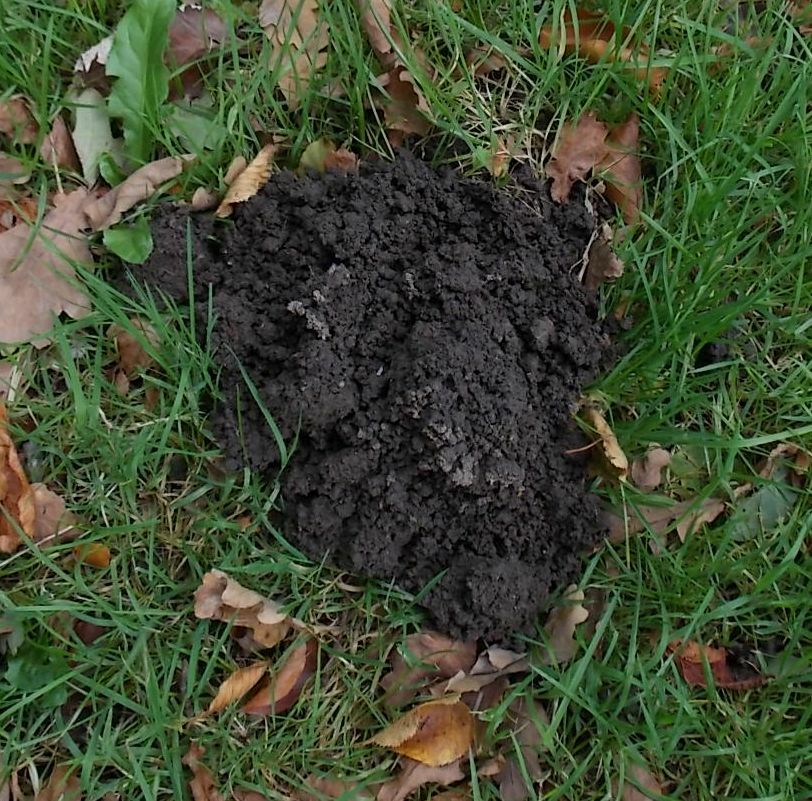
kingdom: Animalia
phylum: Chordata
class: Mammalia
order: Soricomorpha
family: Talpidae
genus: Talpa
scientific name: Talpa europaea
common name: European mole
